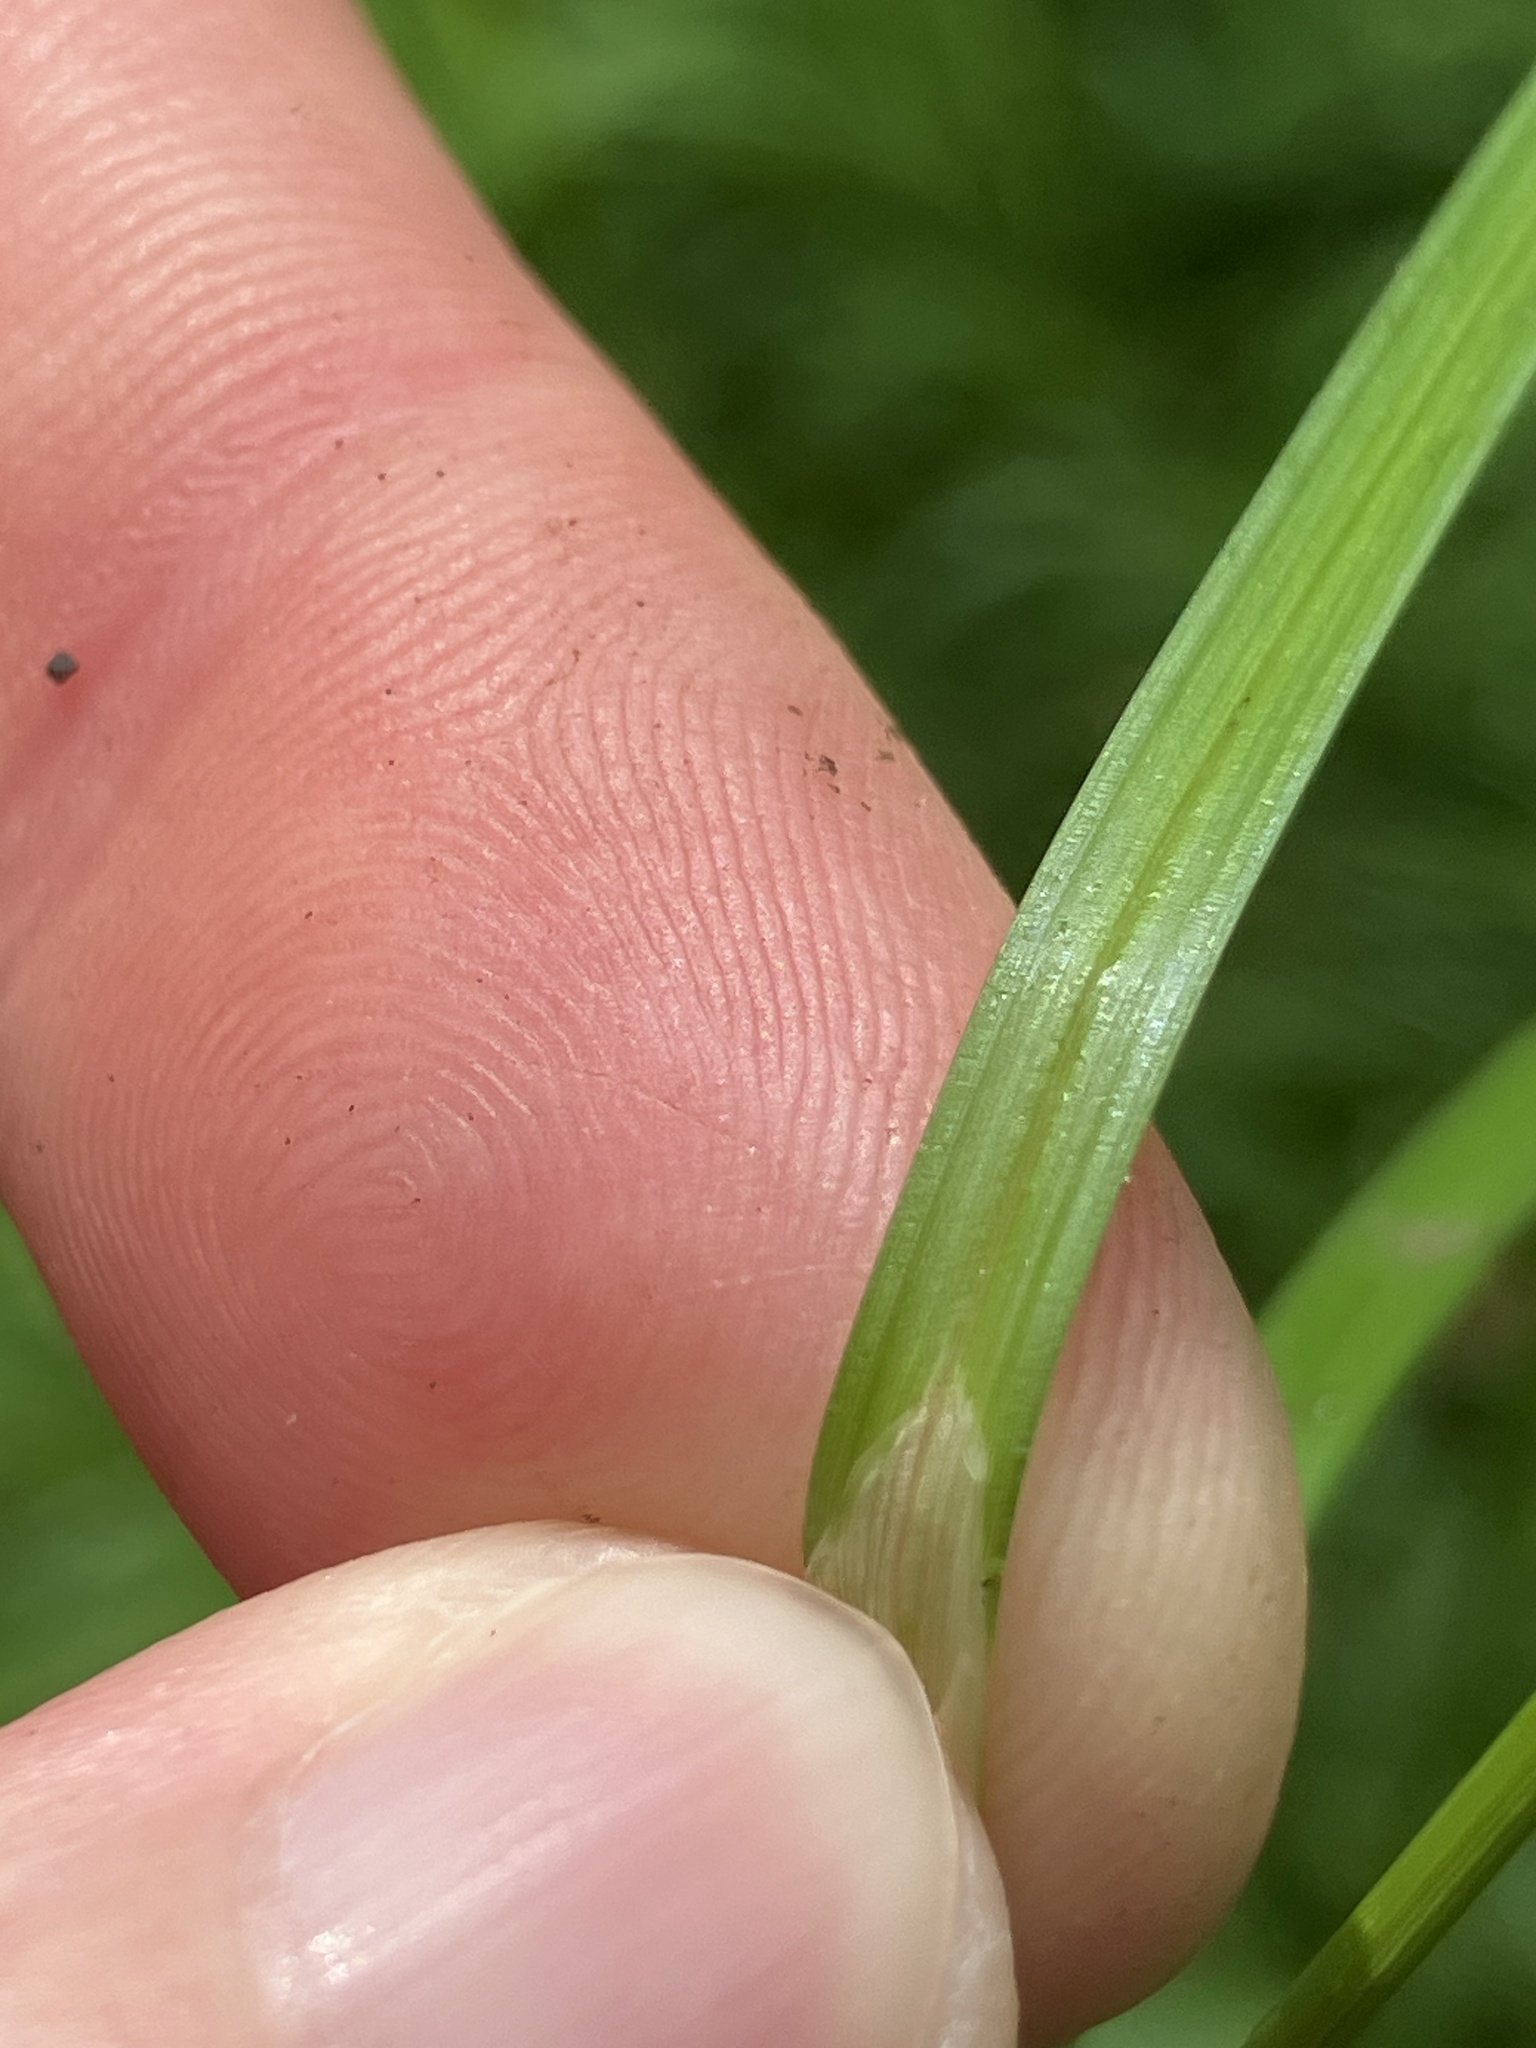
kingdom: Plantae
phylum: Tracheophyta
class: Liliopsida
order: Poales
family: Cyperaceae
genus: Carex
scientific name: Carex spicata
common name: Spiked sedge
